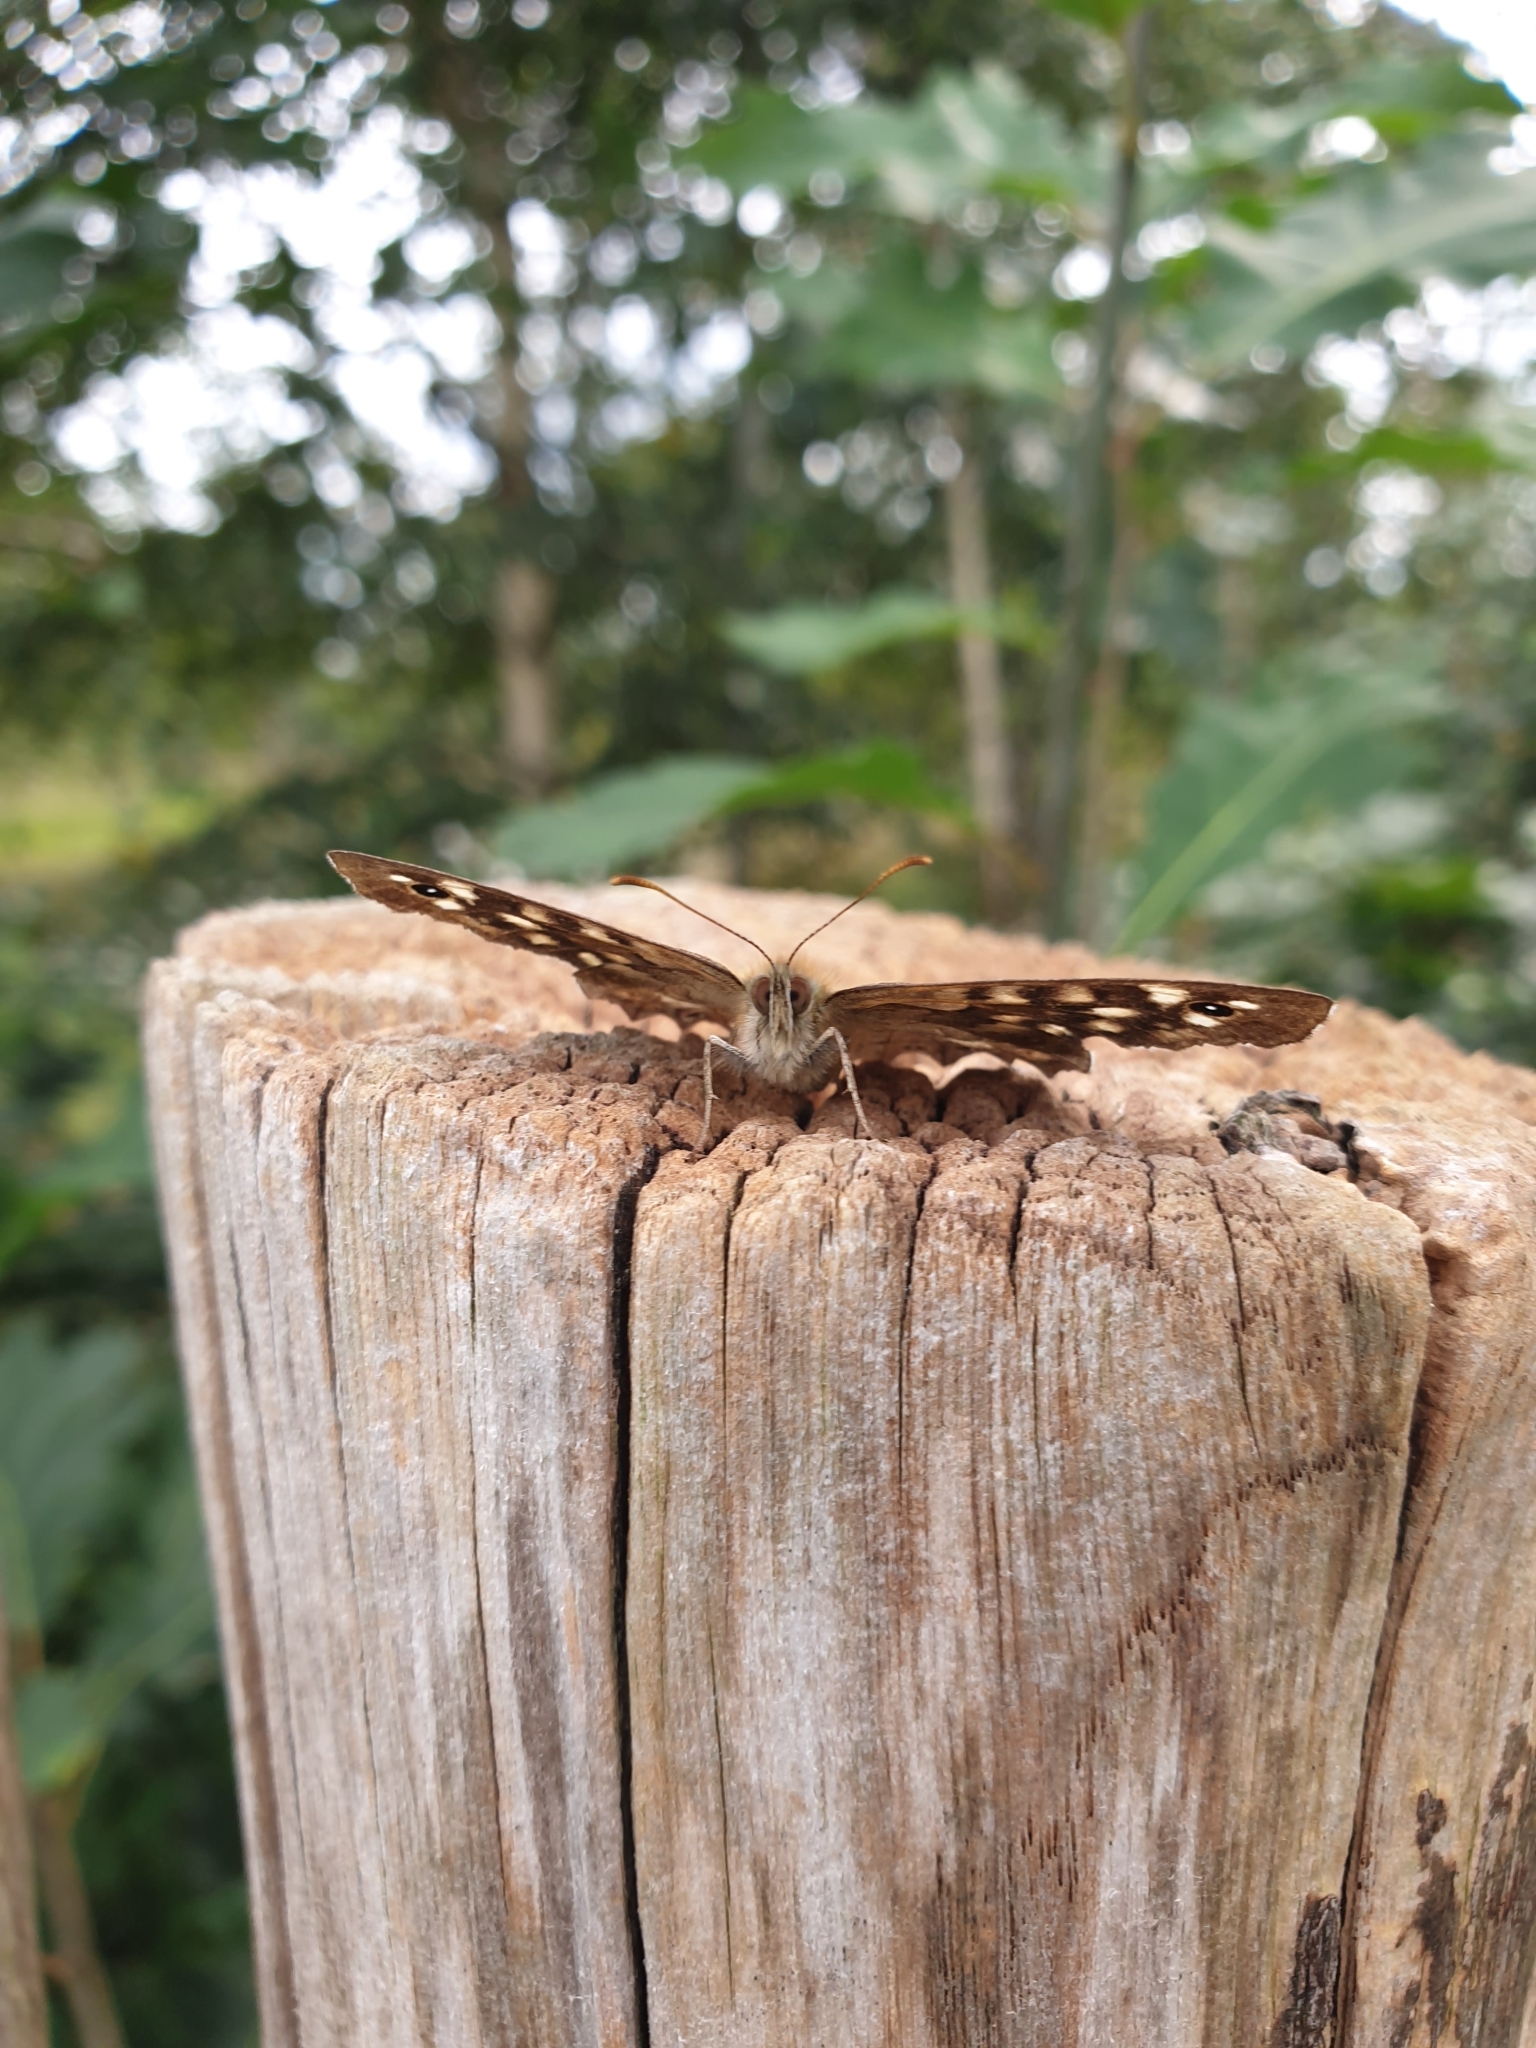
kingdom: Animalia
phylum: Arthropoda
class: Insecta
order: Lepidoptera
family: Nymphalidae
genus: Pararge
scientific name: Pararge aegeria
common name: Speckled wood
